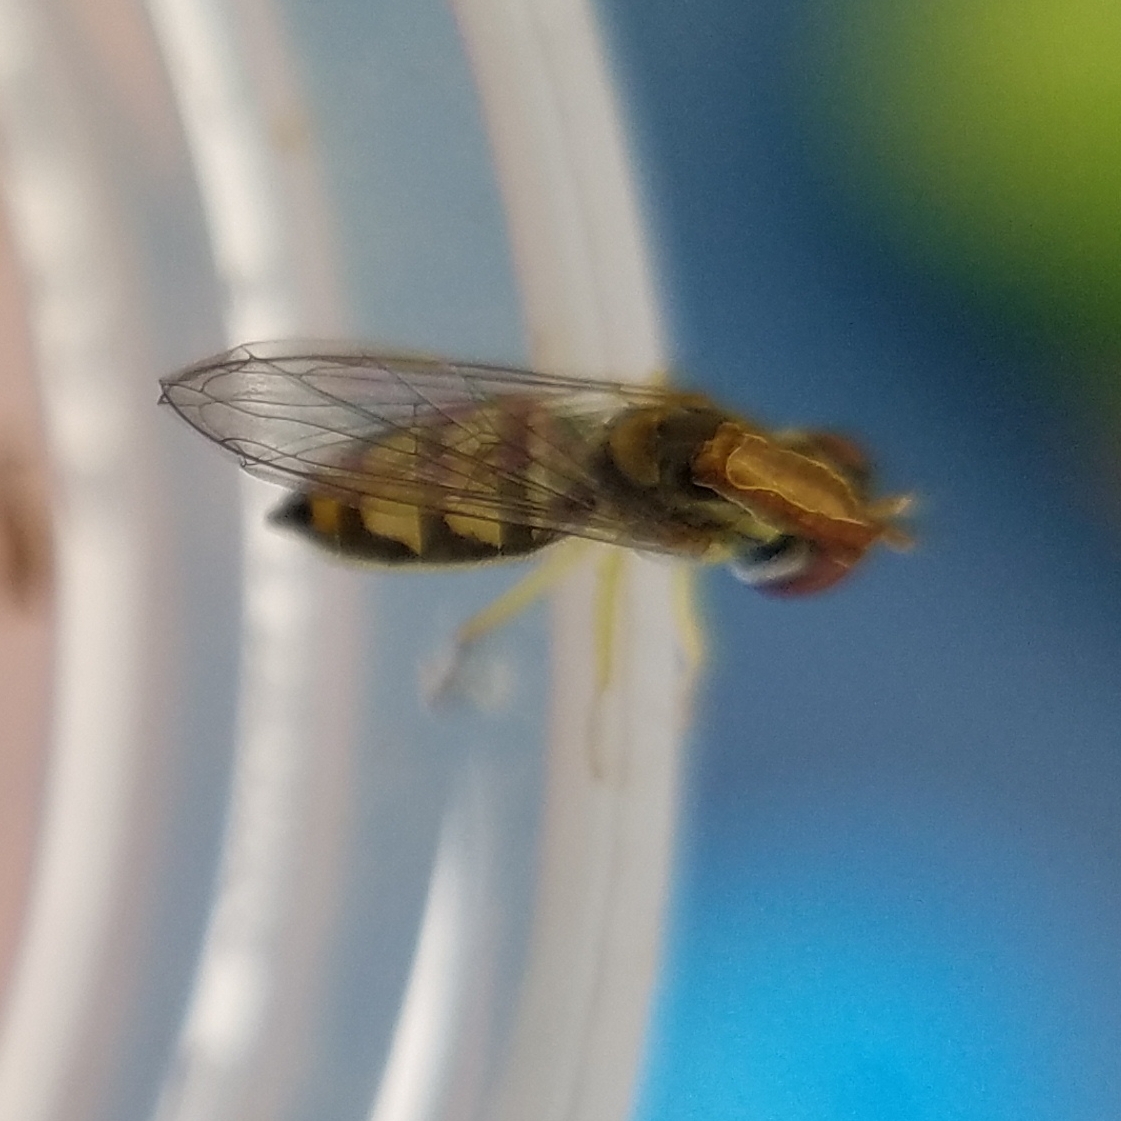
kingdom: Animalia
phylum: Arthropoda
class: Insecta
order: Diptera
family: Syrphidae
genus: Toxomerus
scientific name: Toxomerus marginatus
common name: Syrphid fly
